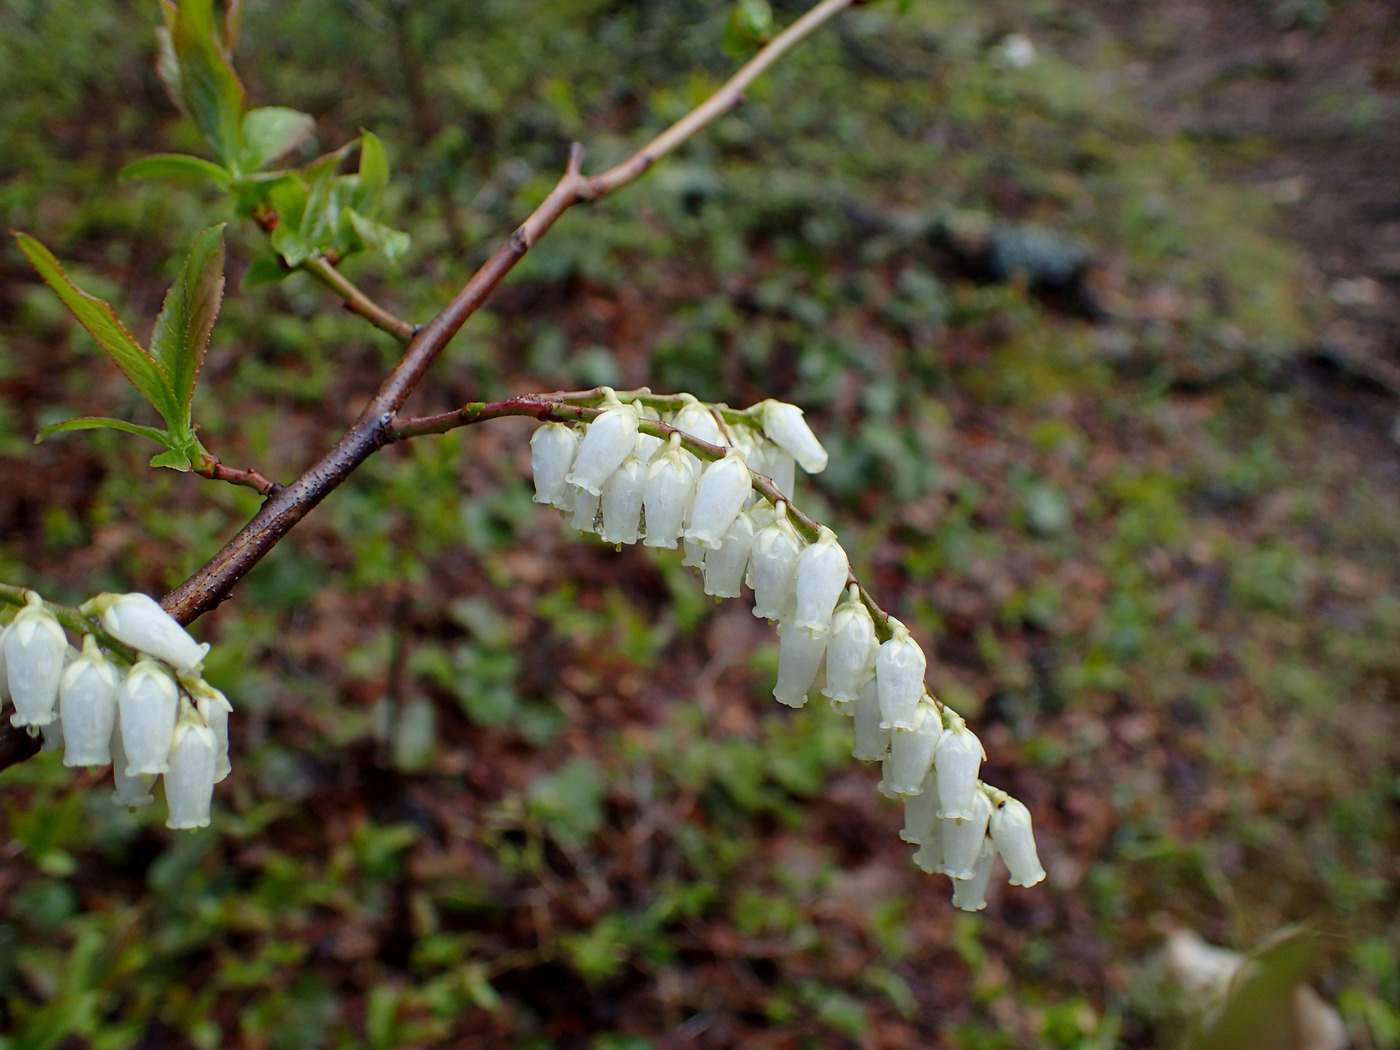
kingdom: Plantae
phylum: Tracheophyta
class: Magnoliopsida
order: Ericales
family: Ericaceae
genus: Eubotrys
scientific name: Eubotrys recurva
